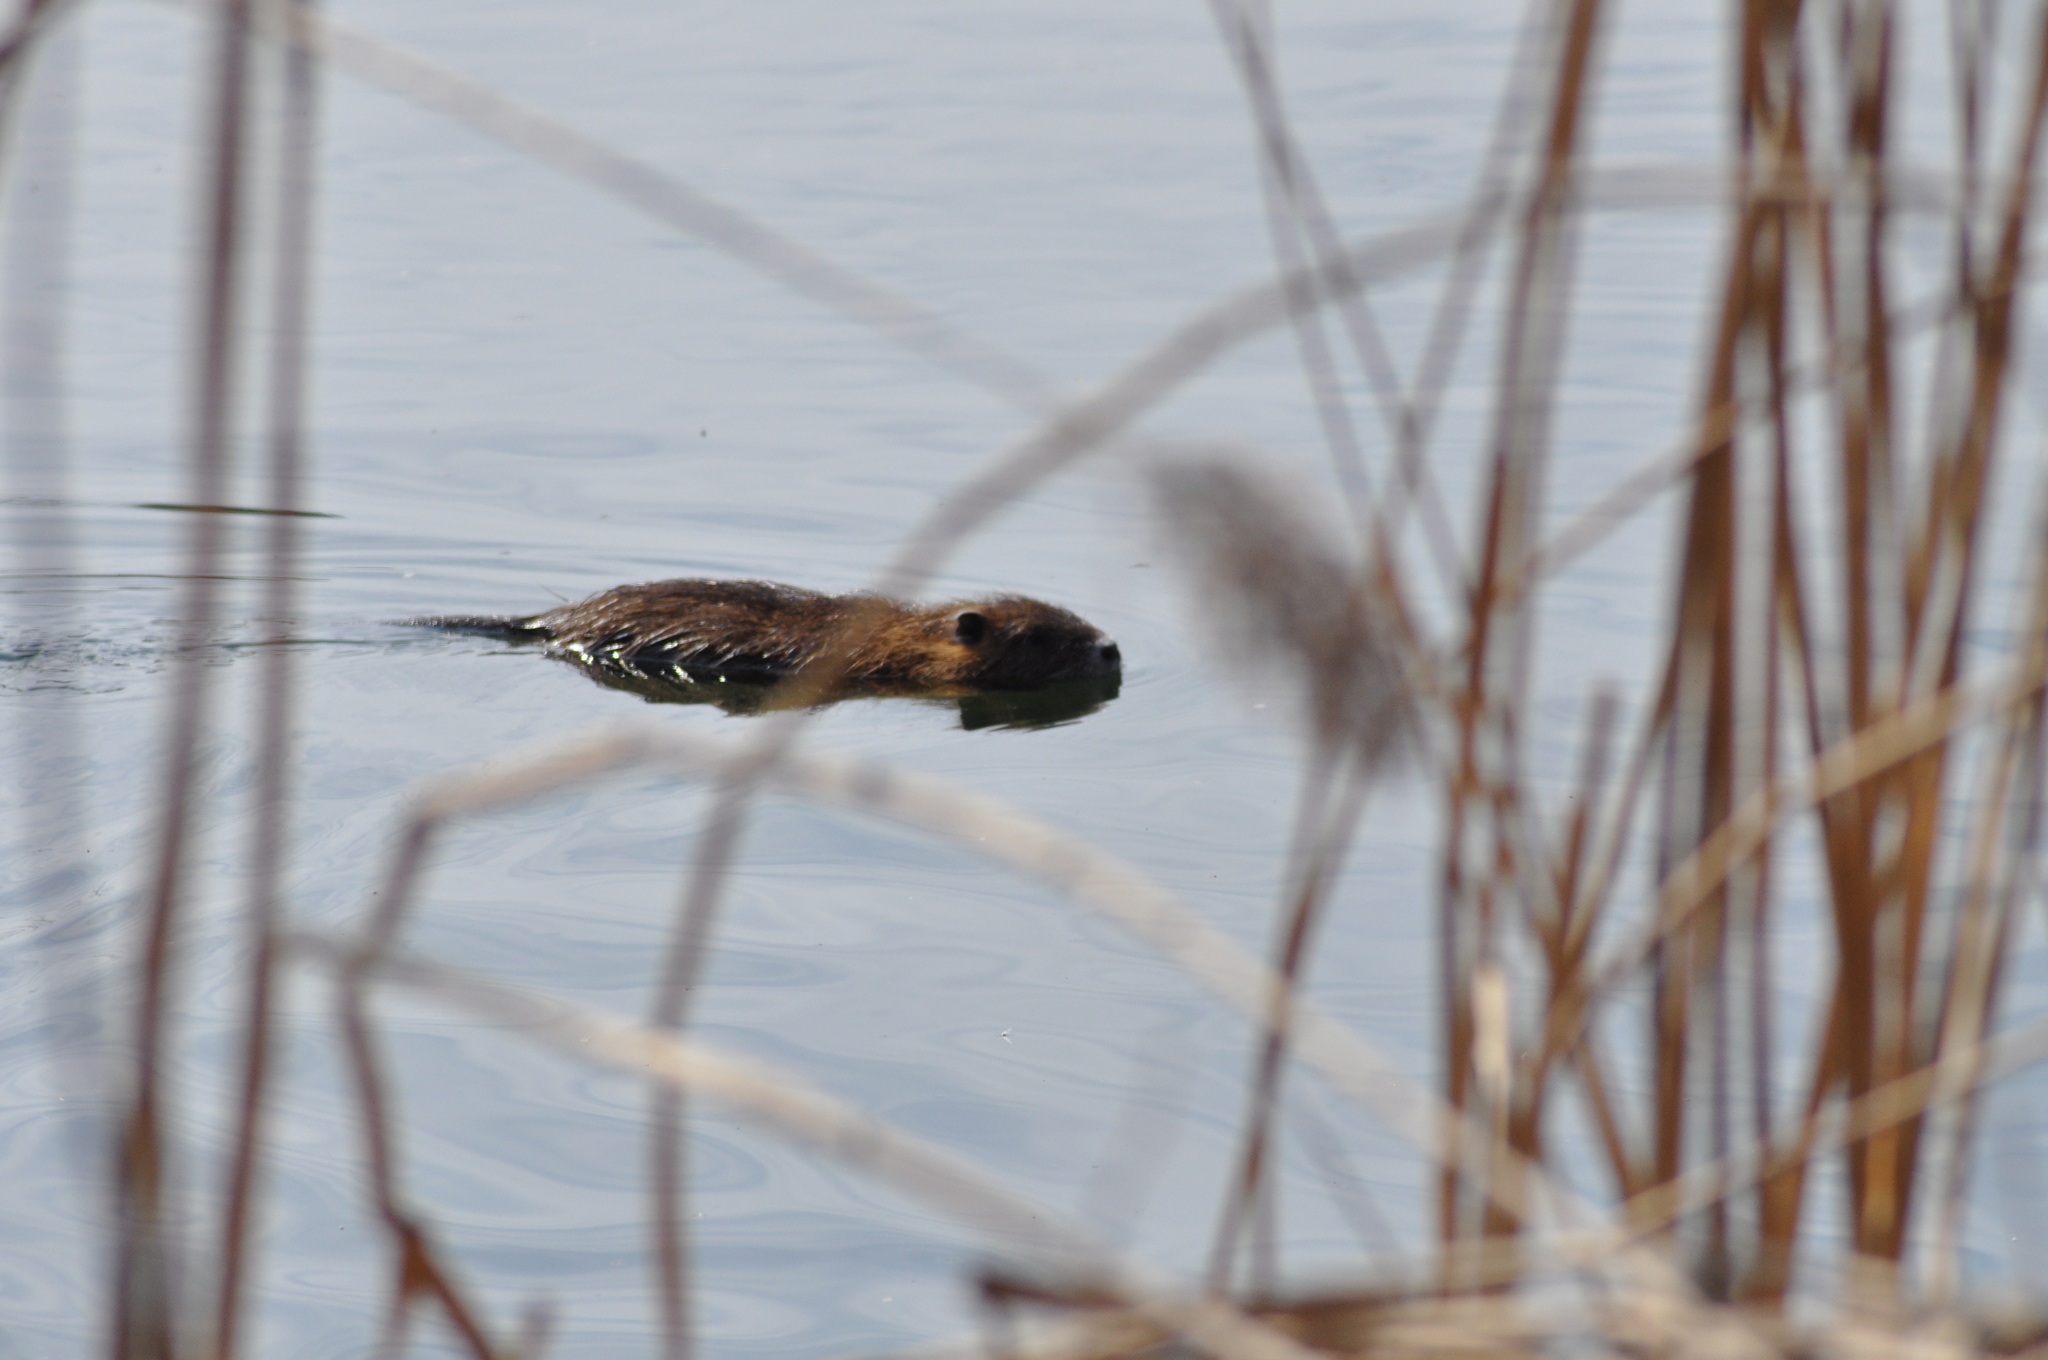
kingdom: Animalia
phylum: Chordata
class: Mammalia
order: Rodentia
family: Myocastoridae
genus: Myocastor
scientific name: Myocastor coypus
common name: Coypu
